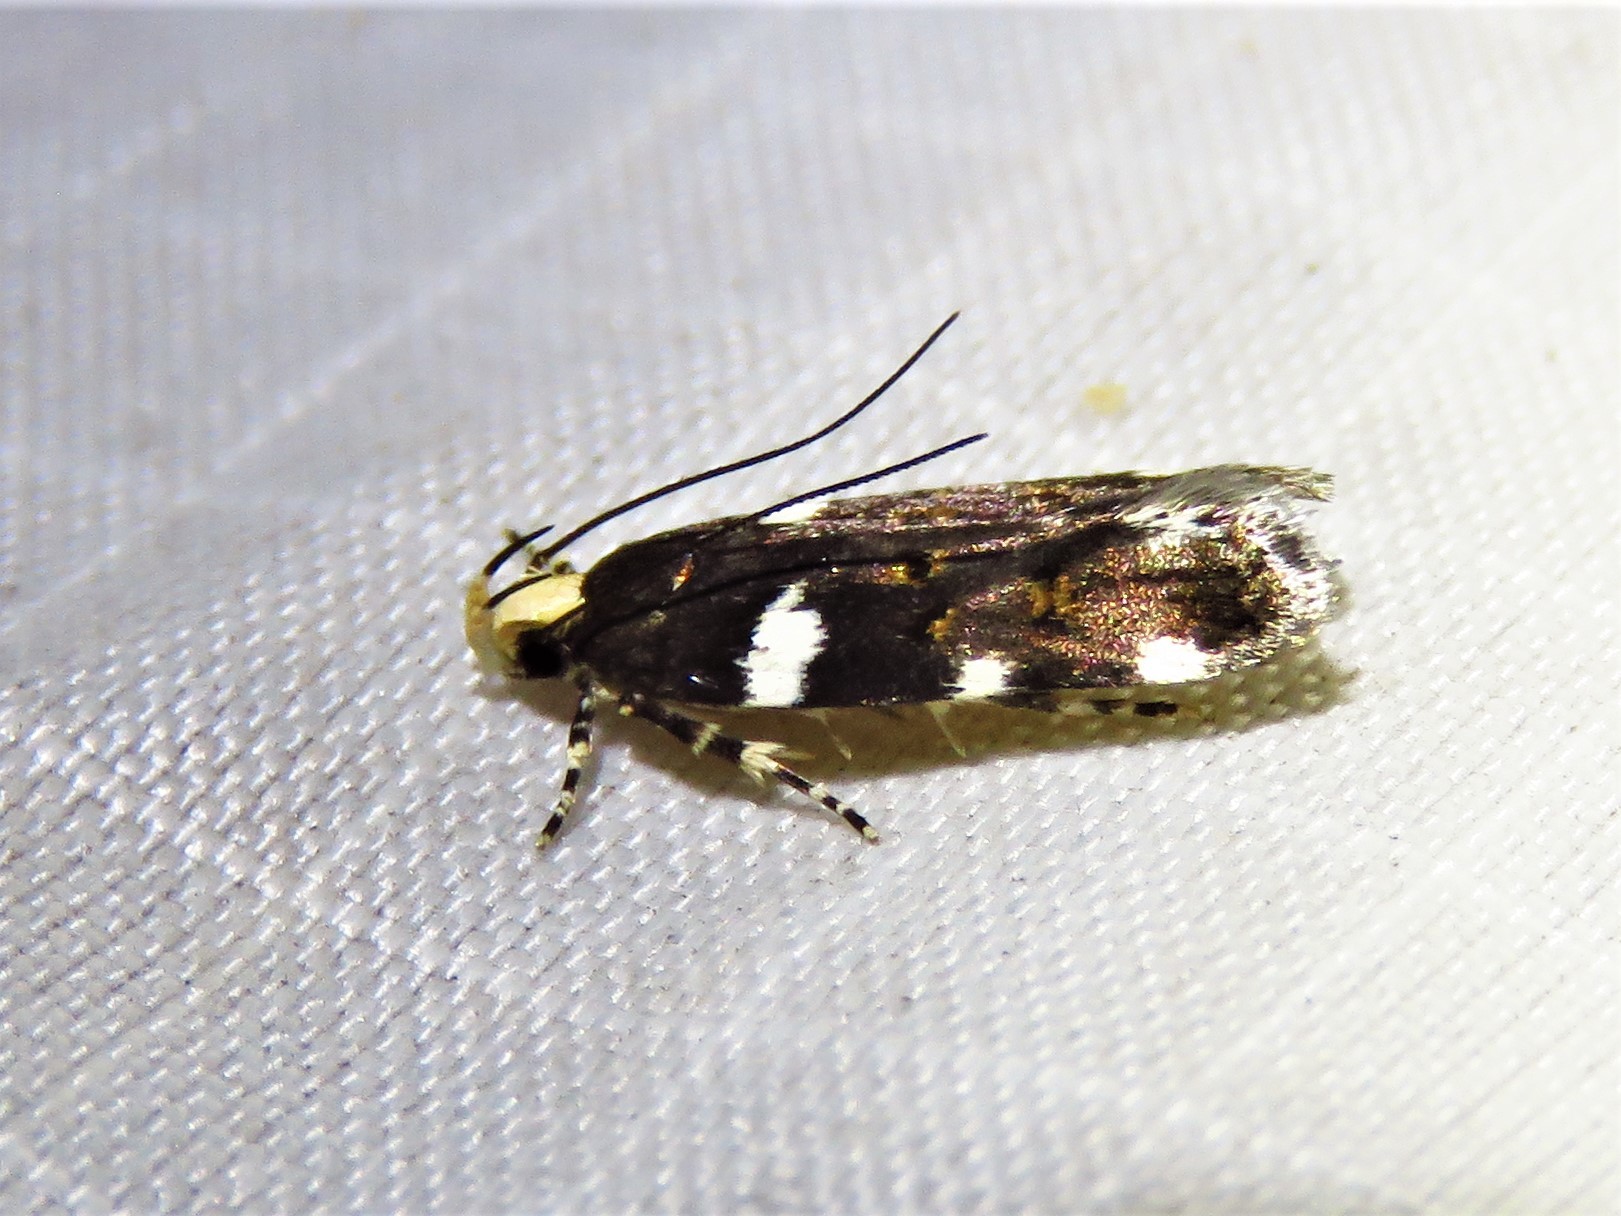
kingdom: Animalia
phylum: Arthropoda
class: Insecta
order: Lepidoptera
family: Gelechiidae
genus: Fascista
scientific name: Fascista cercerisella
